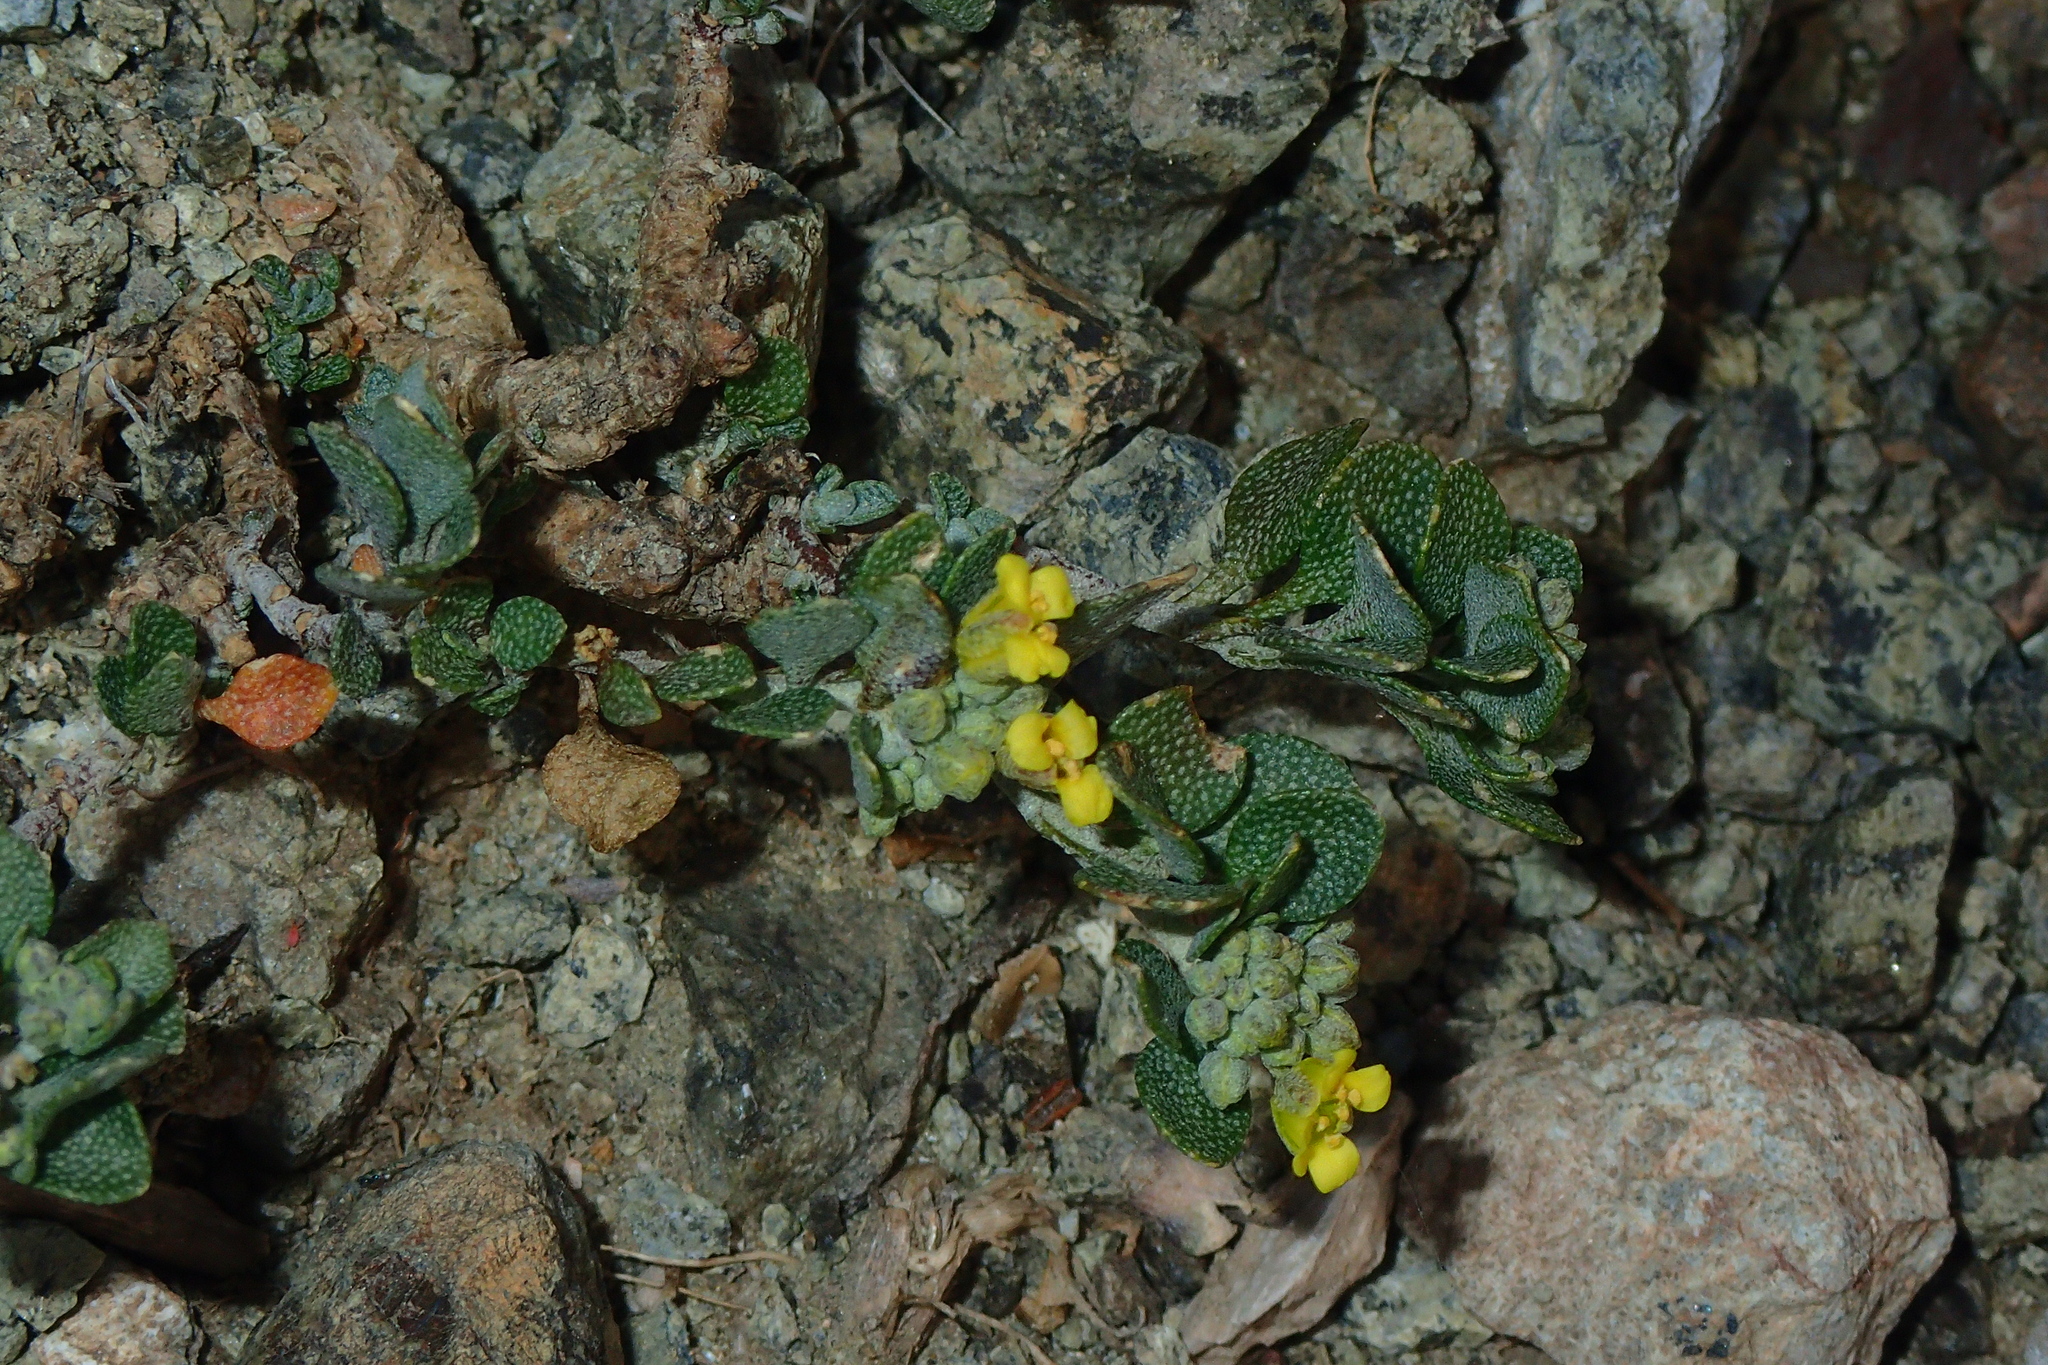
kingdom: Plantae
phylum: Tracheophyta
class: Magnoliopsida
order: Brassicales
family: Brassicaceae
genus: Odontarrhena
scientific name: Odontarrhena akamasica
